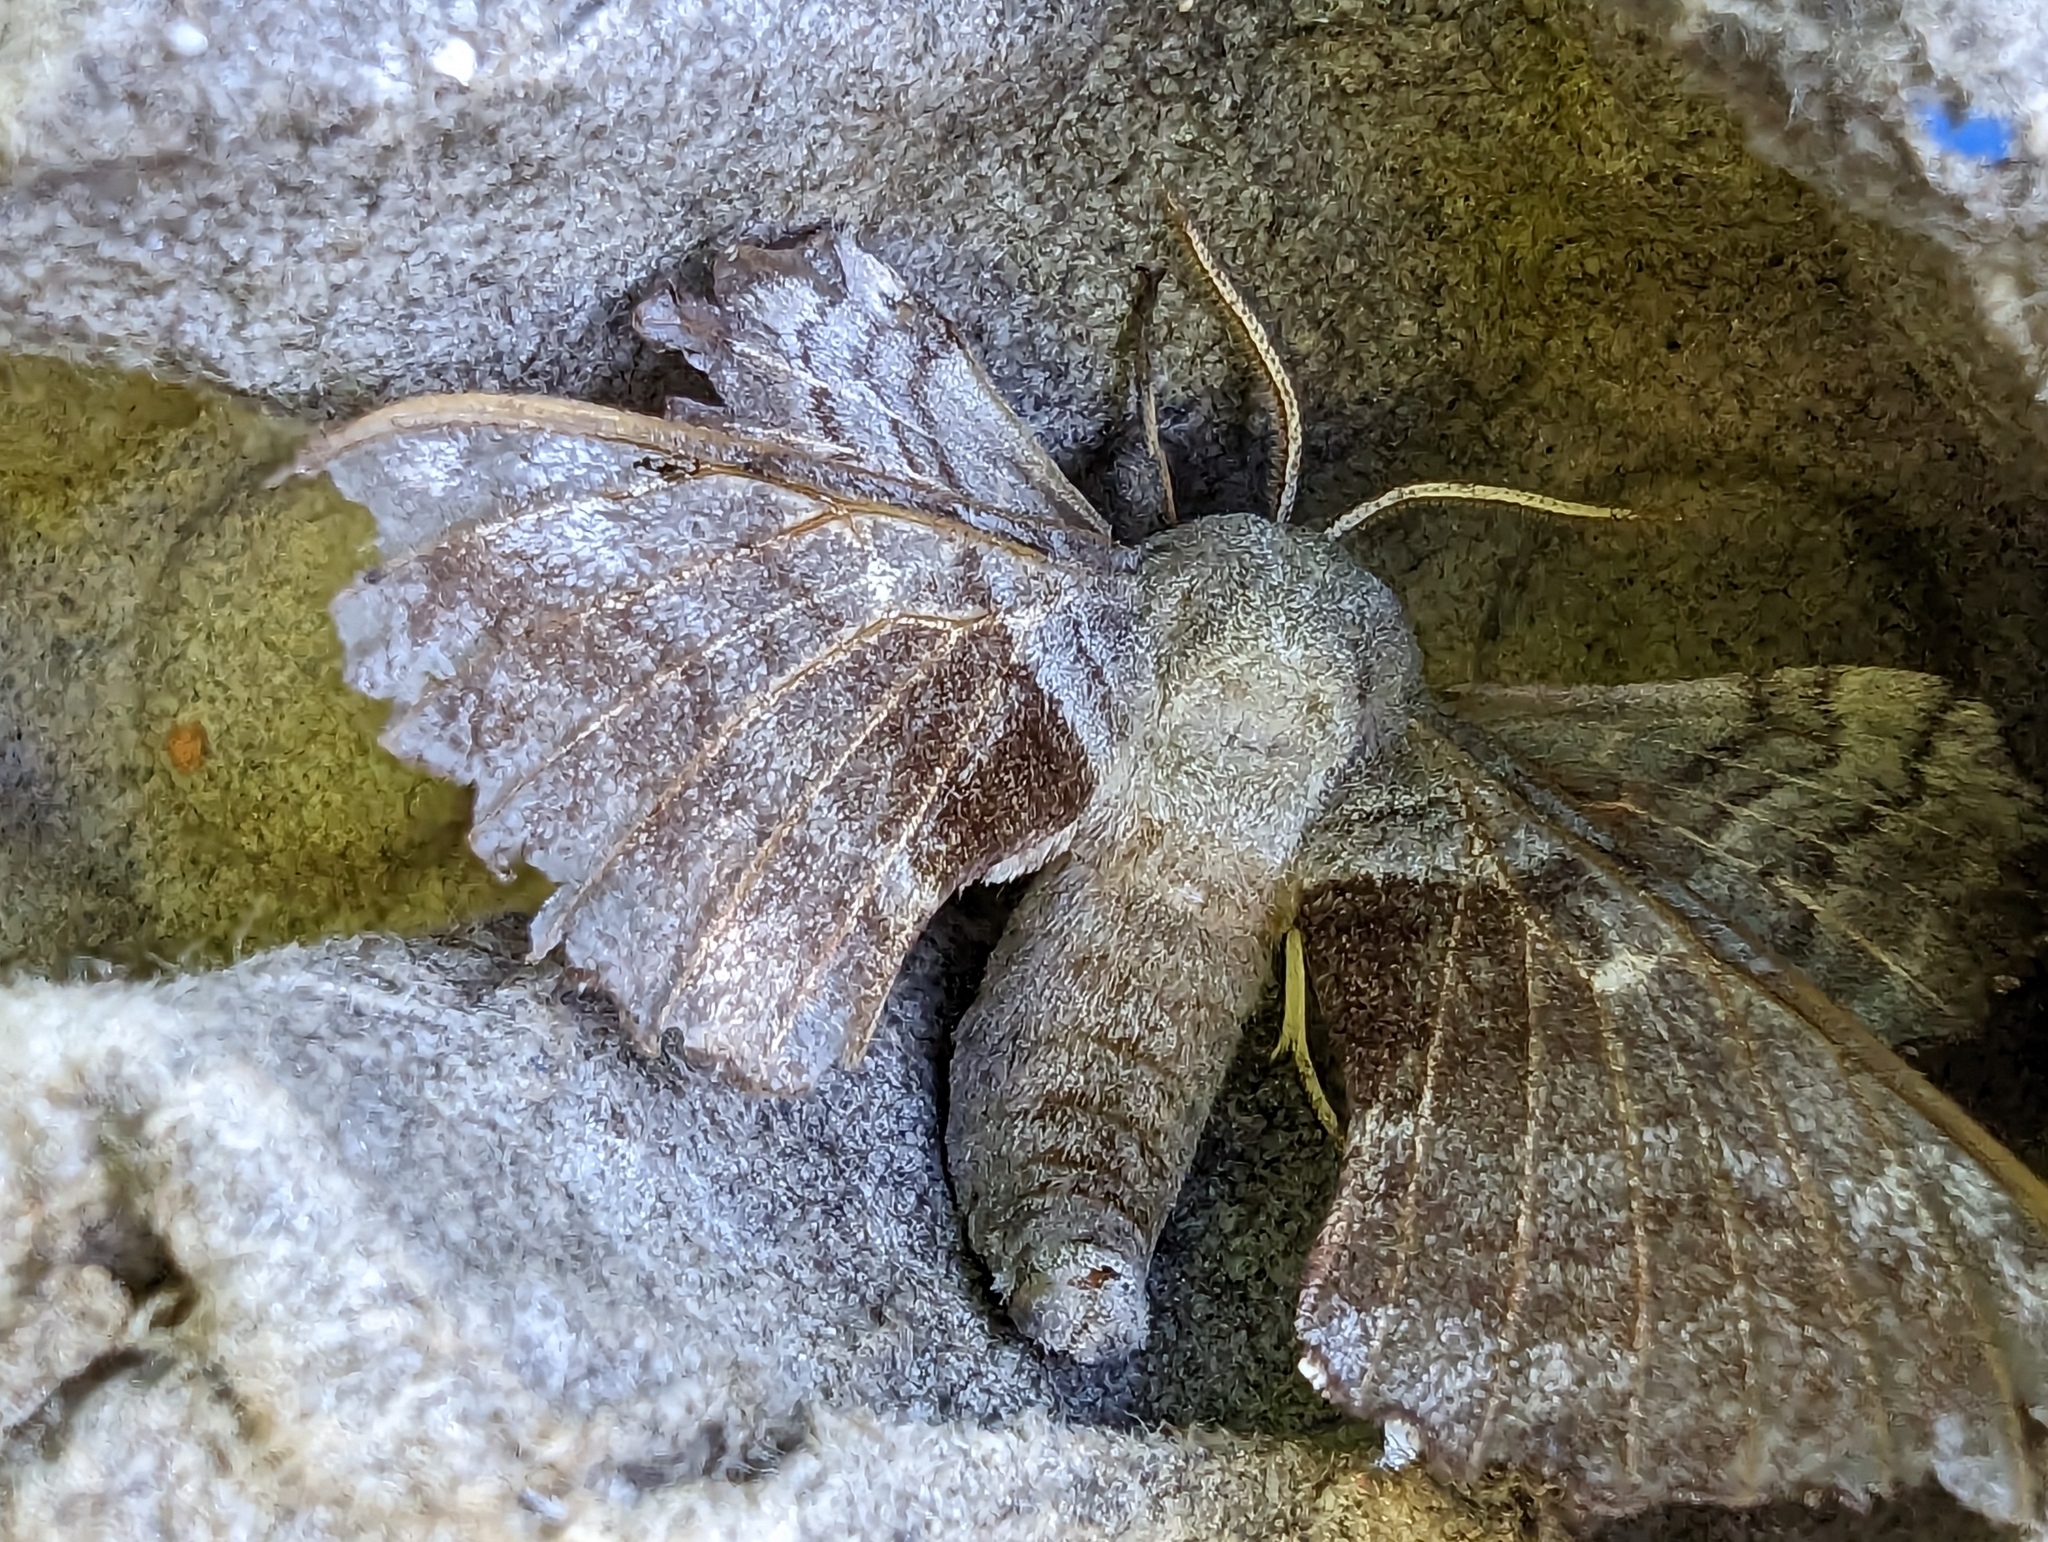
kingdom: Animalia
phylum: Arthropoda
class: Insecta
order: Lepidoptera
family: Sphingidae
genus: Laothoe
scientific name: Laothoe populi
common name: Poplar hawk-moth
